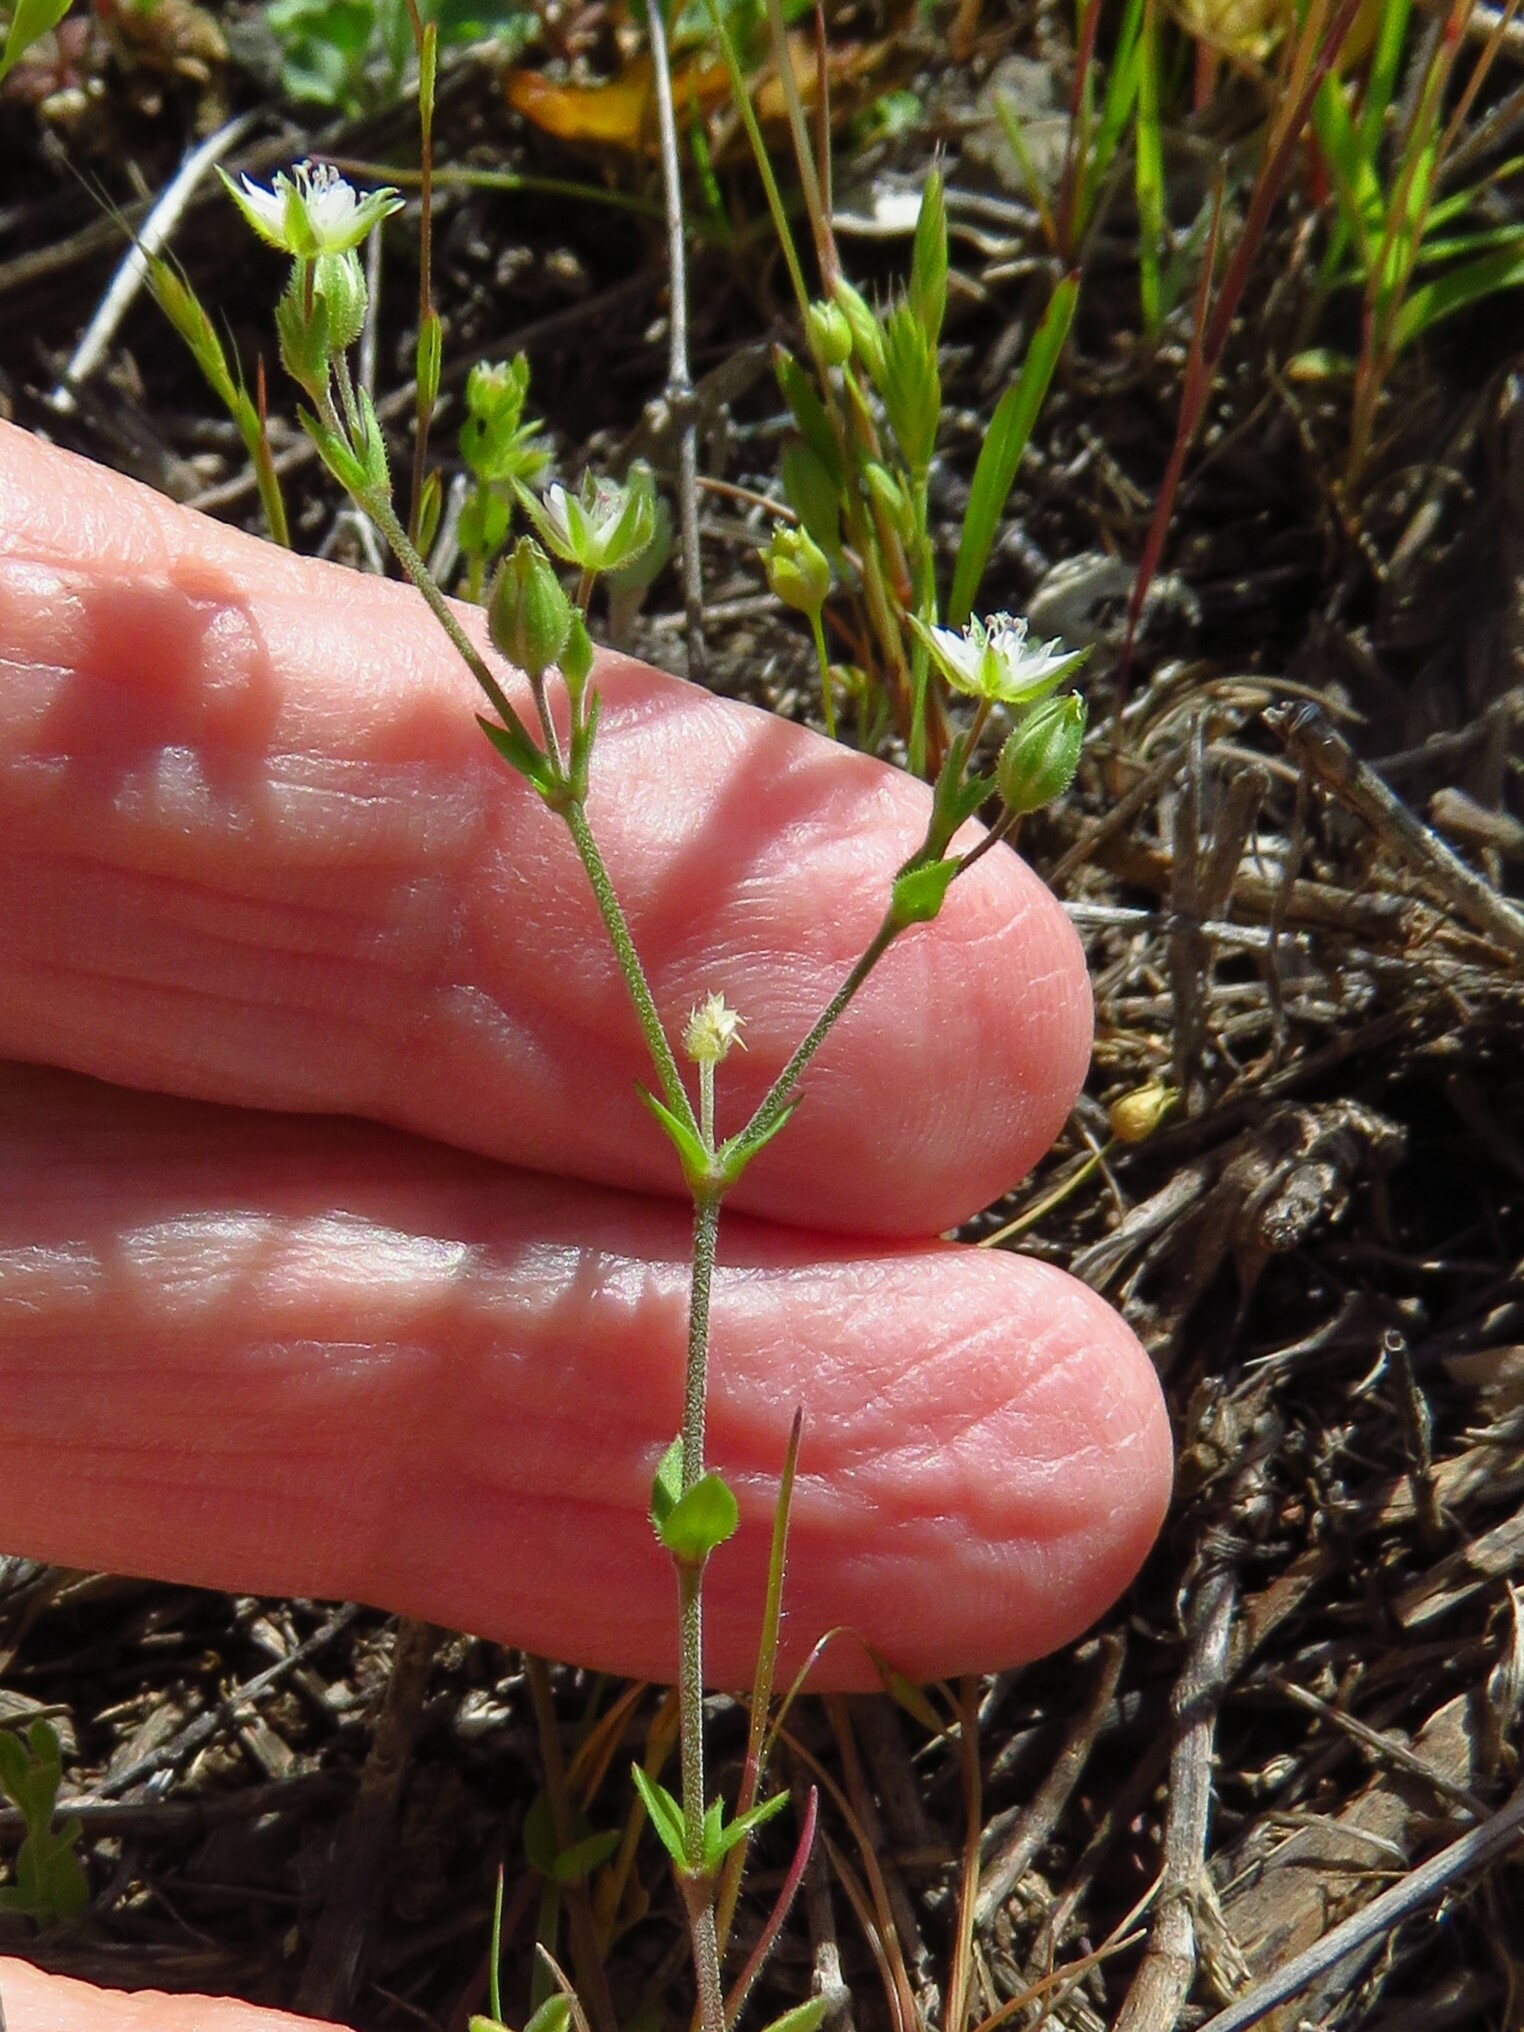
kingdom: Plantae
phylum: Tracheophyta
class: Magnoliopsida
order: Caryophyllales
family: Caryophyllaceae
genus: Arenaria
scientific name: Arenaria serpyllifolia
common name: Thyme-leaved sandwort
